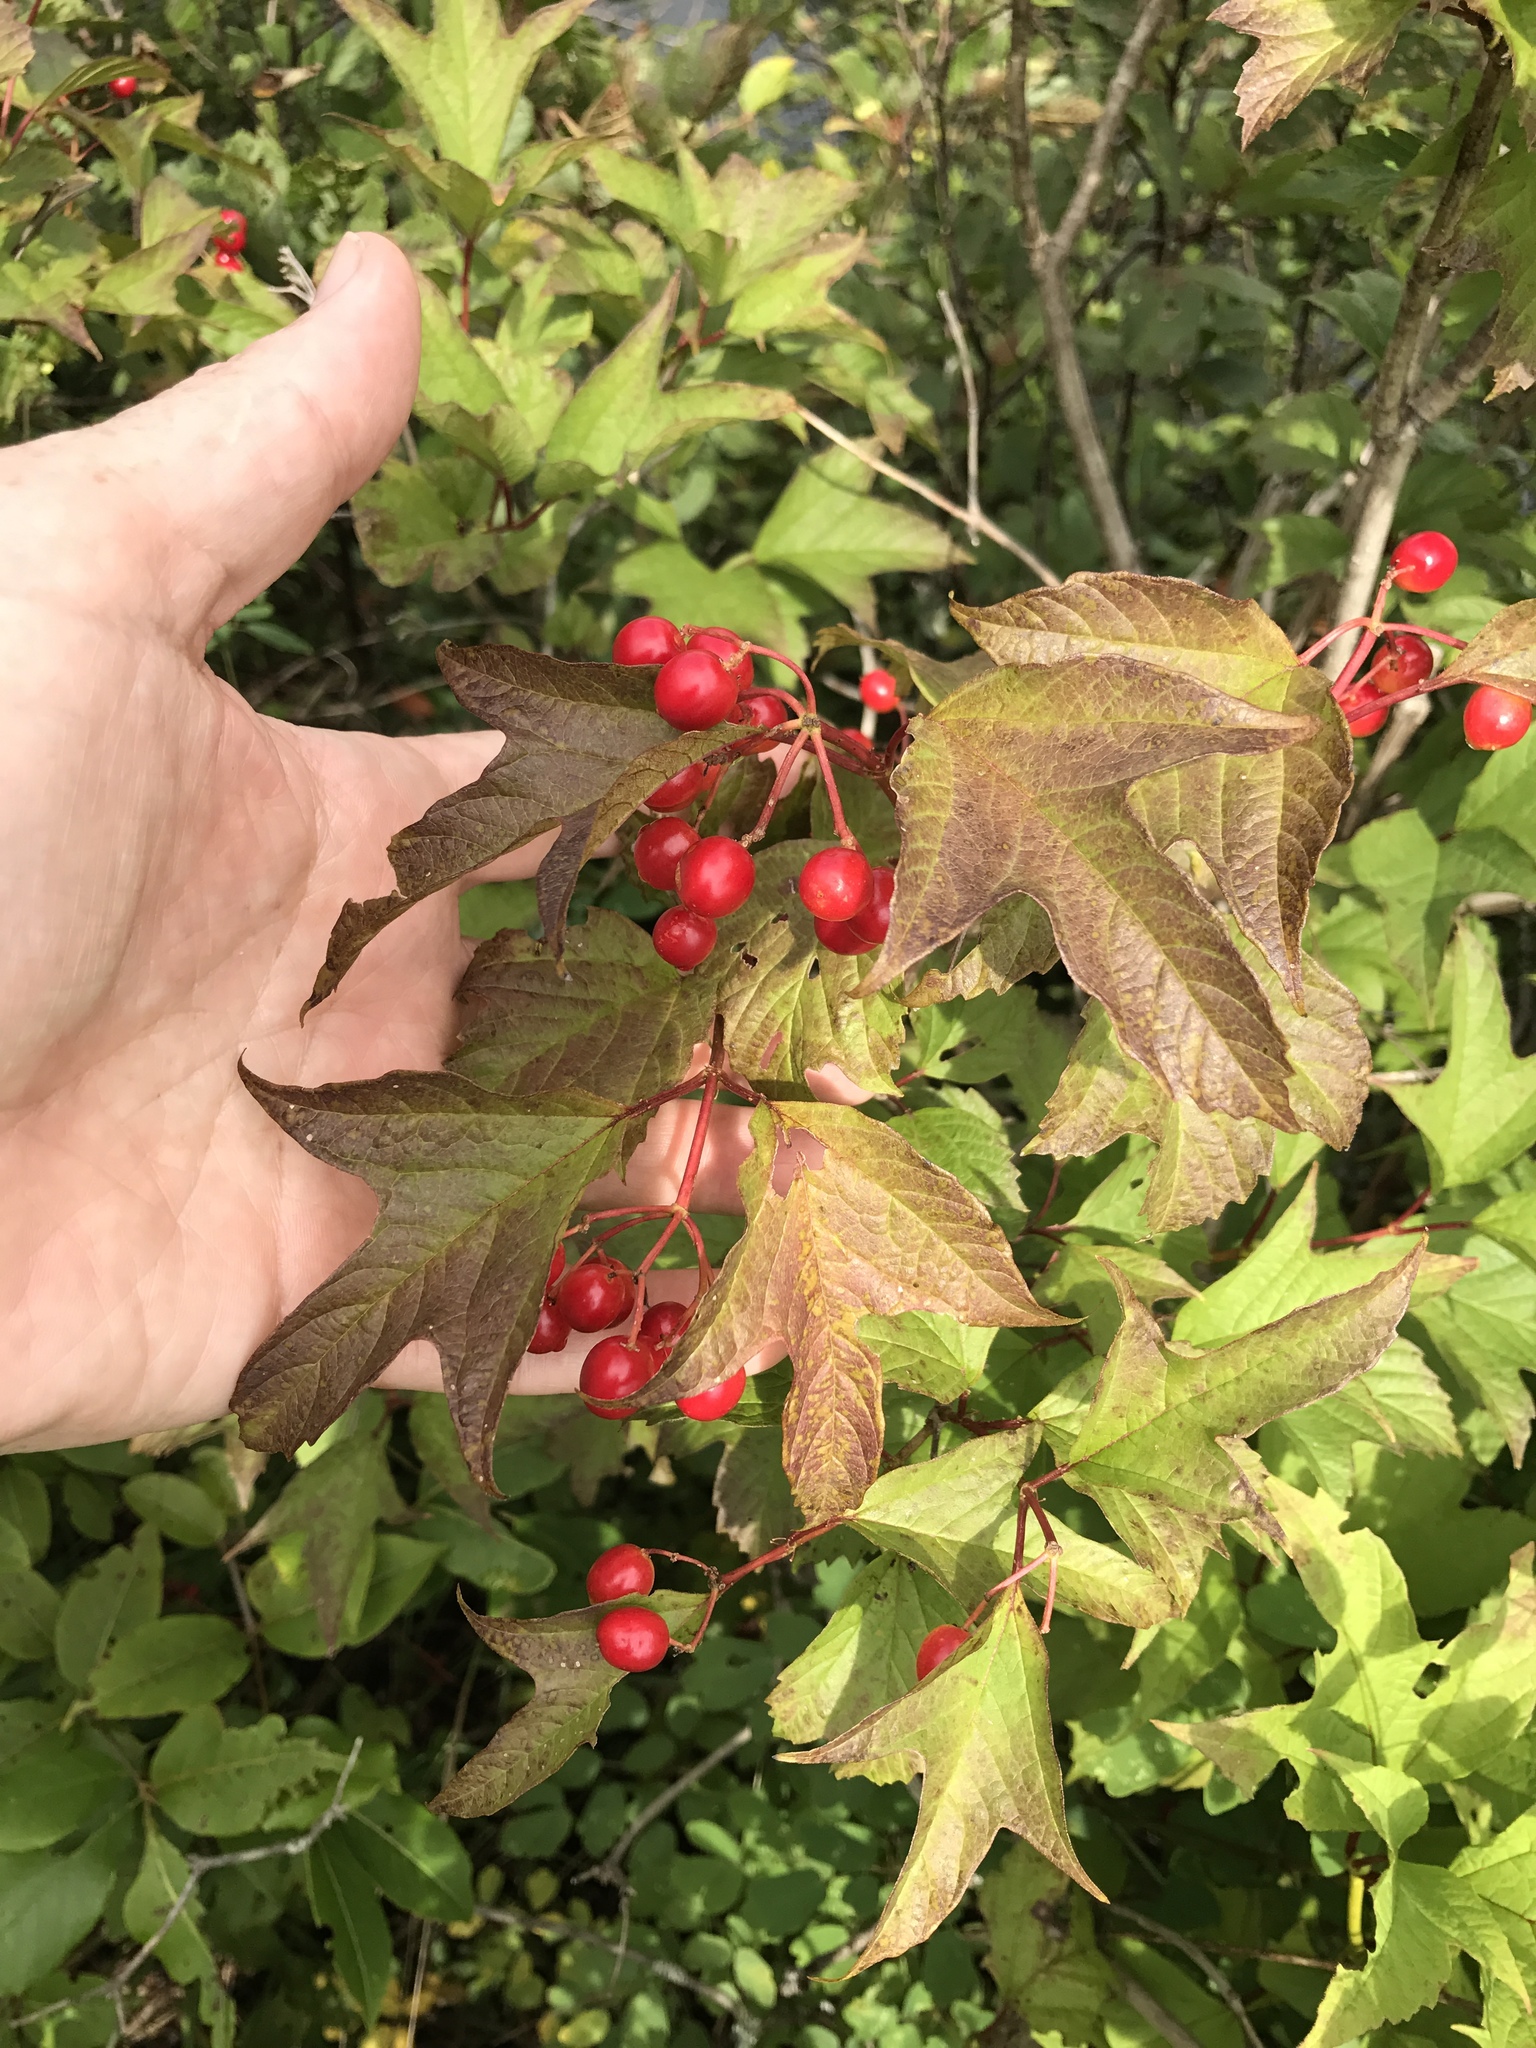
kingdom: Plantae
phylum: Tracheophyta
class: Magnoliopsida
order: Dipsacales
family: Viburnaceae
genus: Viburnum
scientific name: Viburnum trilobum
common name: American cranberrybush
